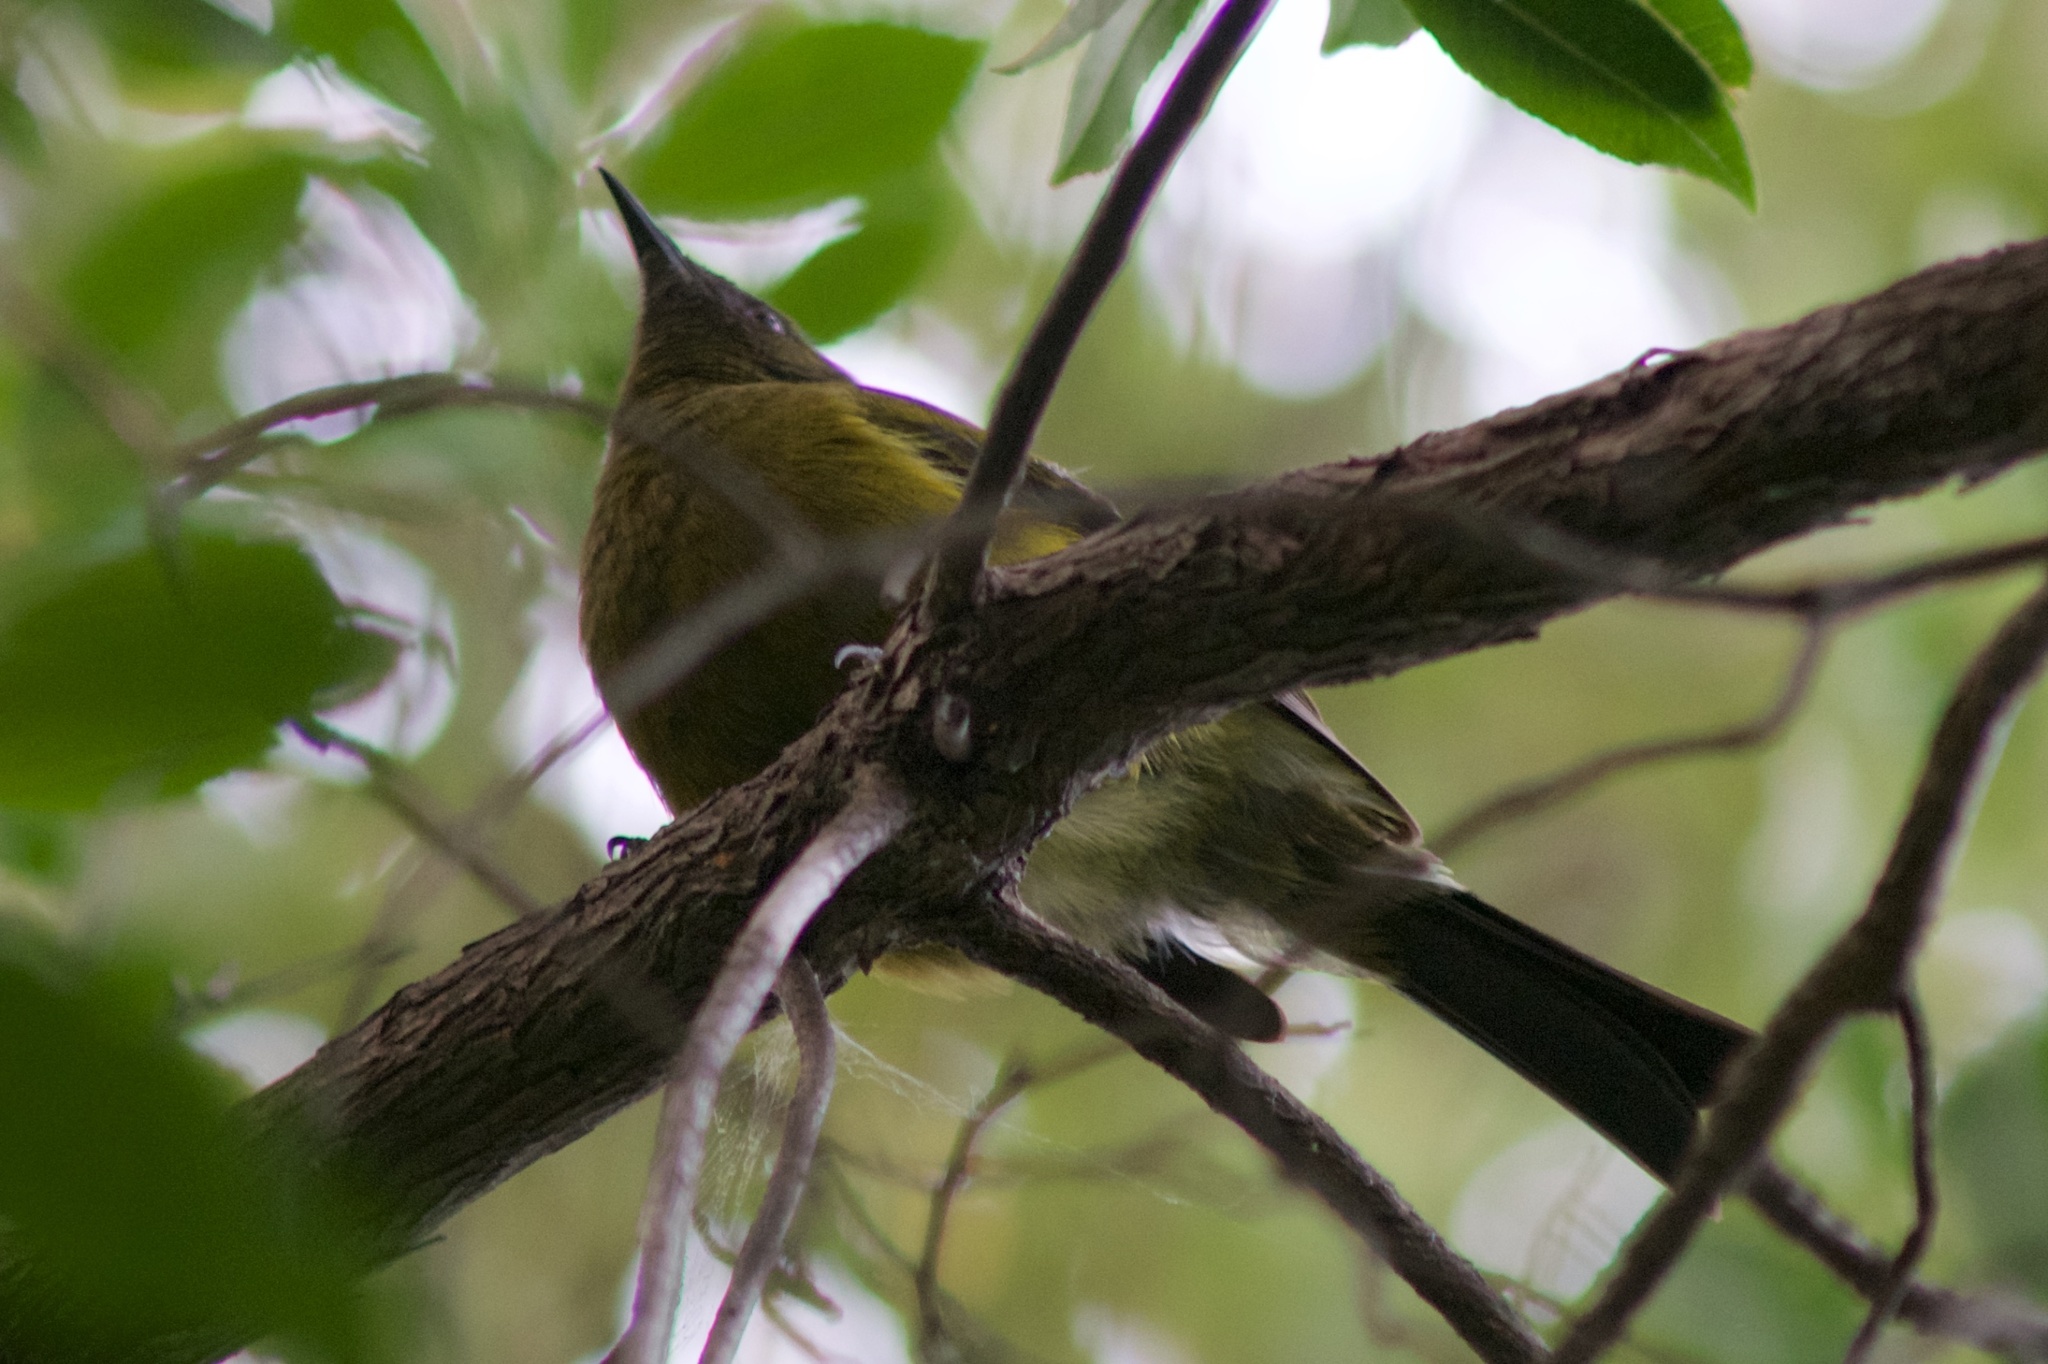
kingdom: Animalia
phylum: Chordata
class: Aves
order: Passeriformes
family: Meliphagidae
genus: Anthornis
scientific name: Anthornis melanura
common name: New zealand bellbird
